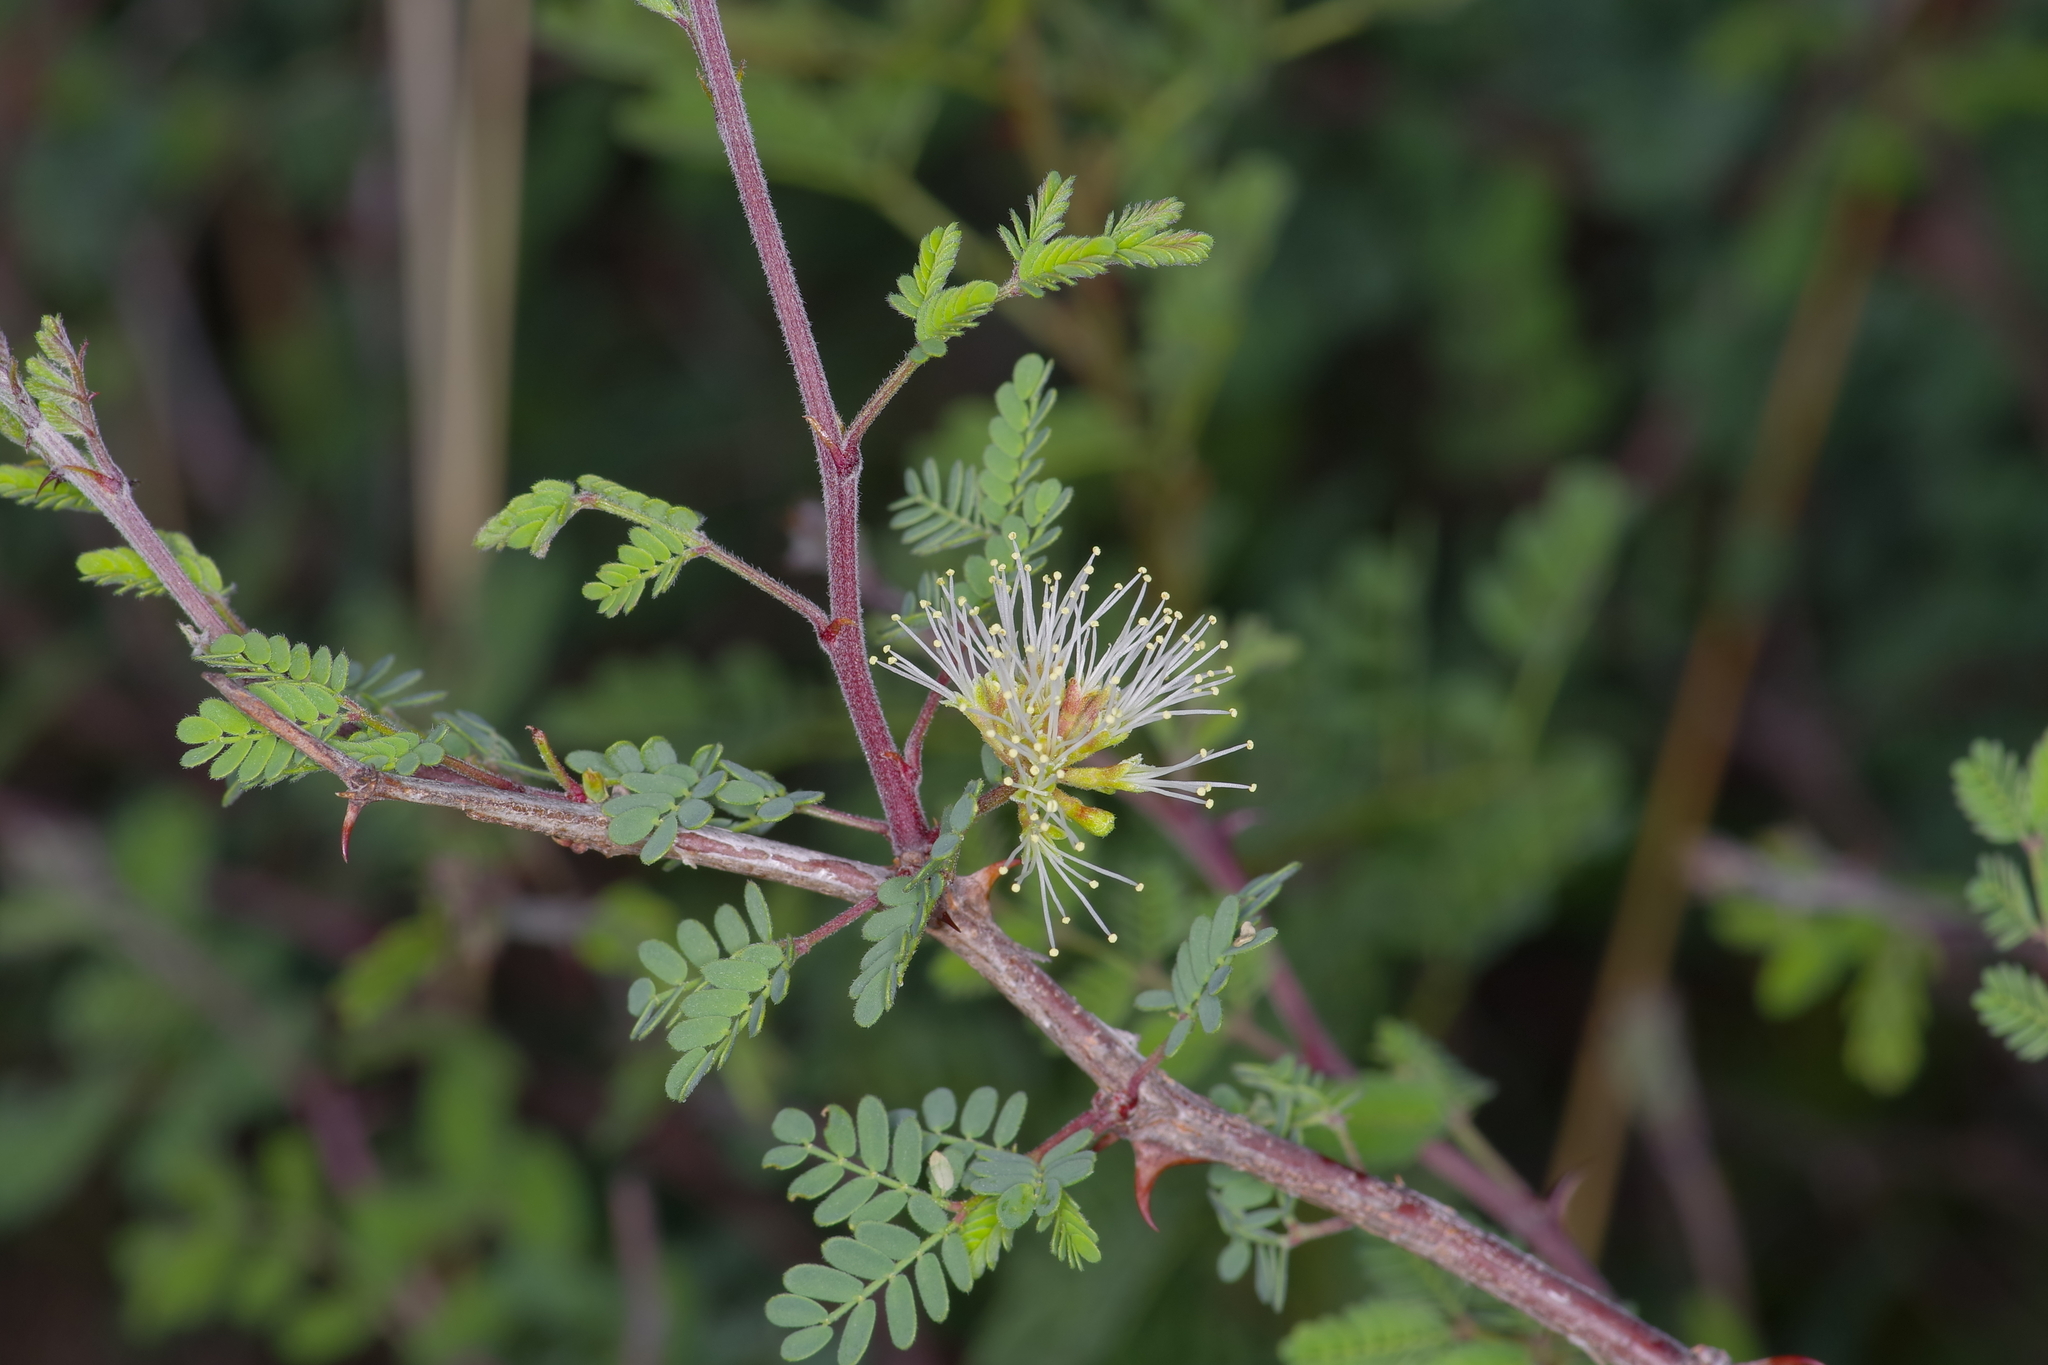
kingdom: Plantae
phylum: Tracheophyta
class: Magnoliopsida
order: Fabales
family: Fabaceae
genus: Mimosa
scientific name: Mimosa texana
